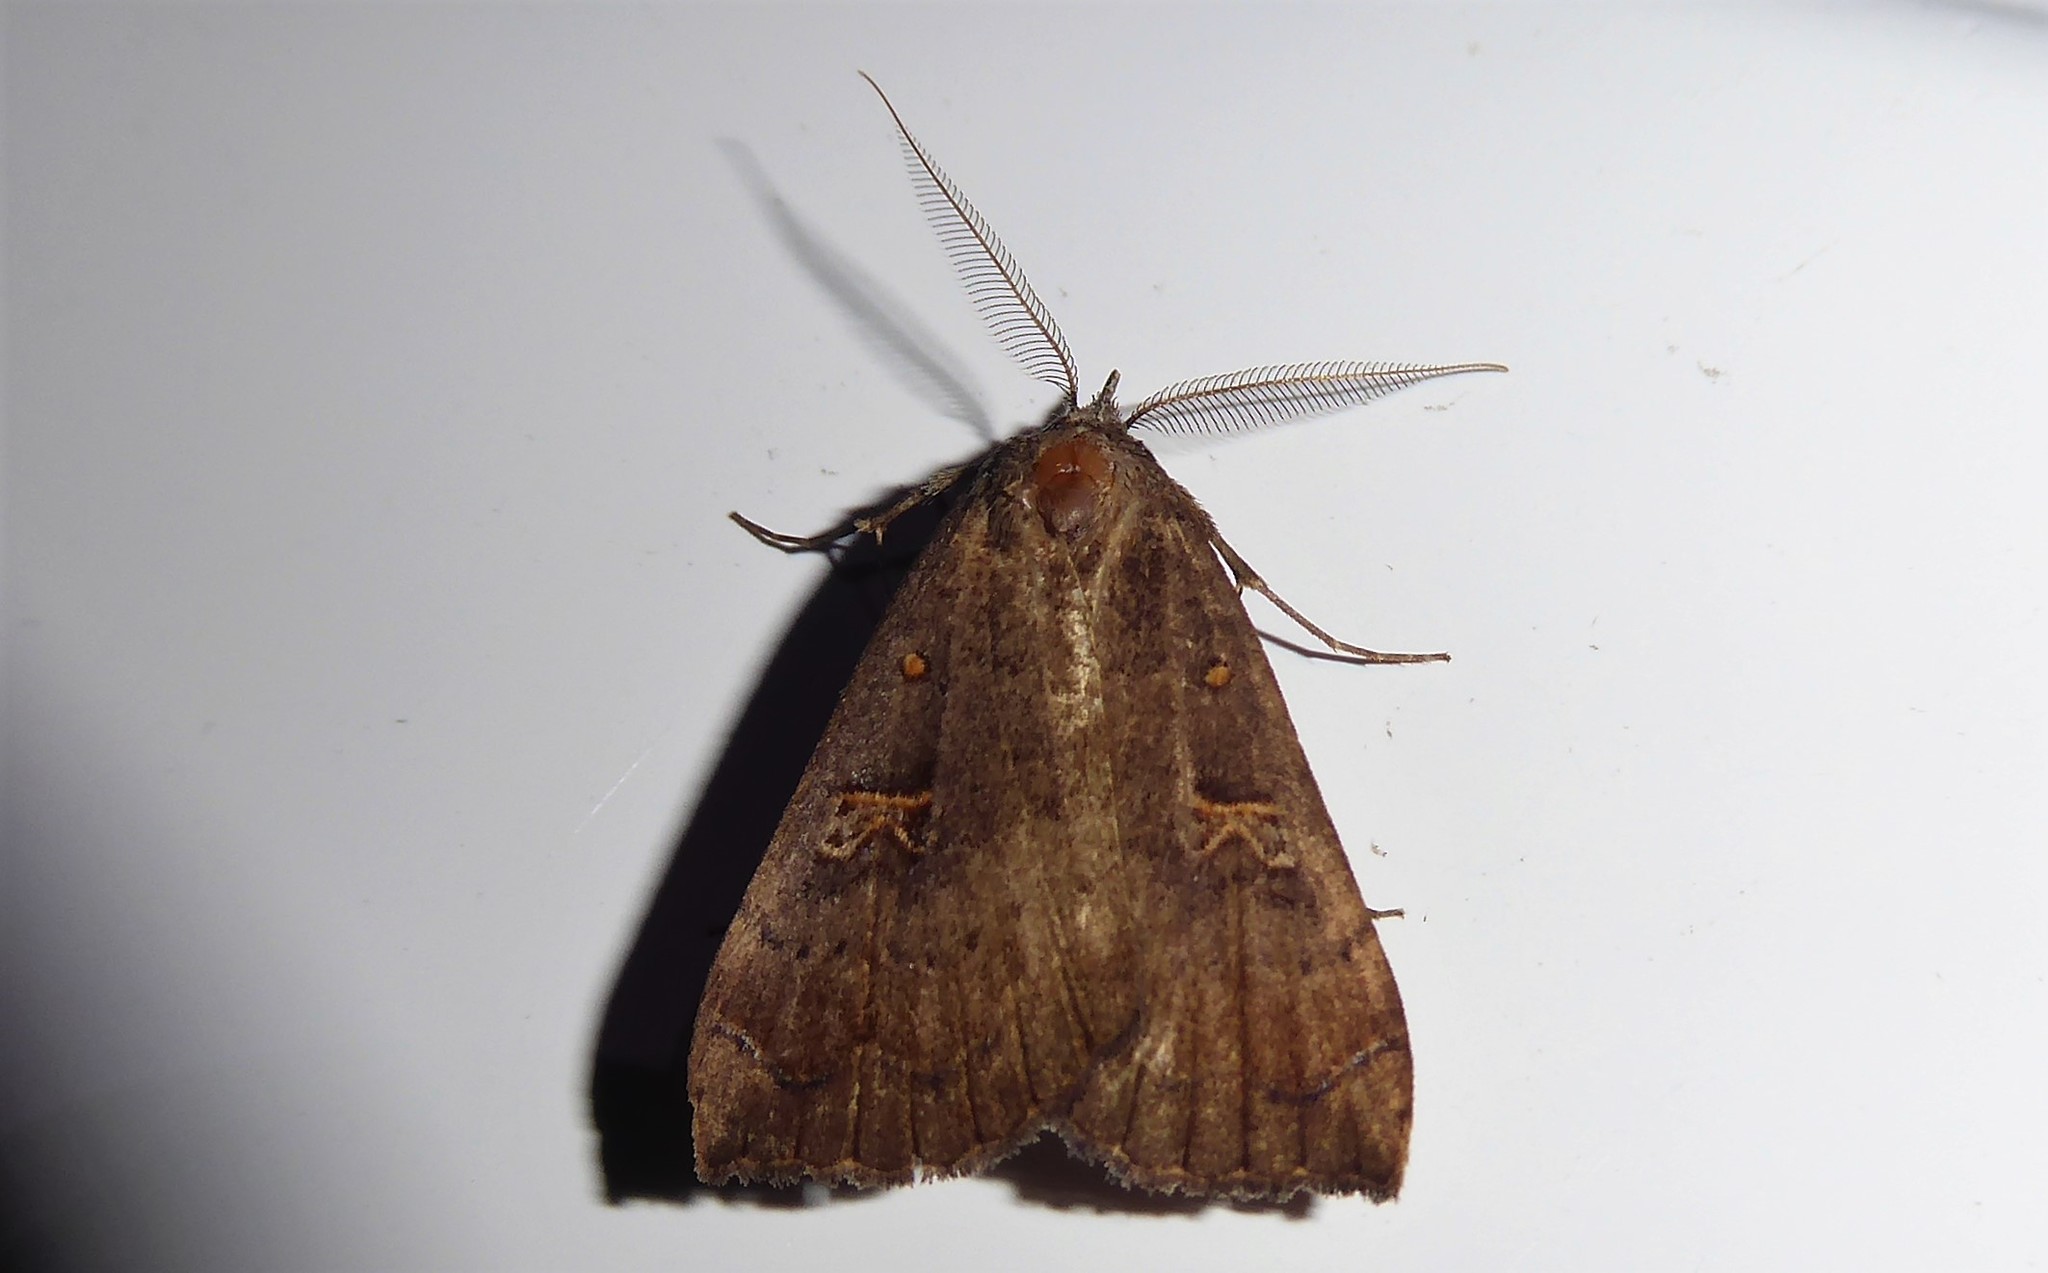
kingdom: Animalia
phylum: Arthropoda
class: Insecta
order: Lepidoptera
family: Erebidae
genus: Rhapsa
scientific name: Rhapsa scotosialis
